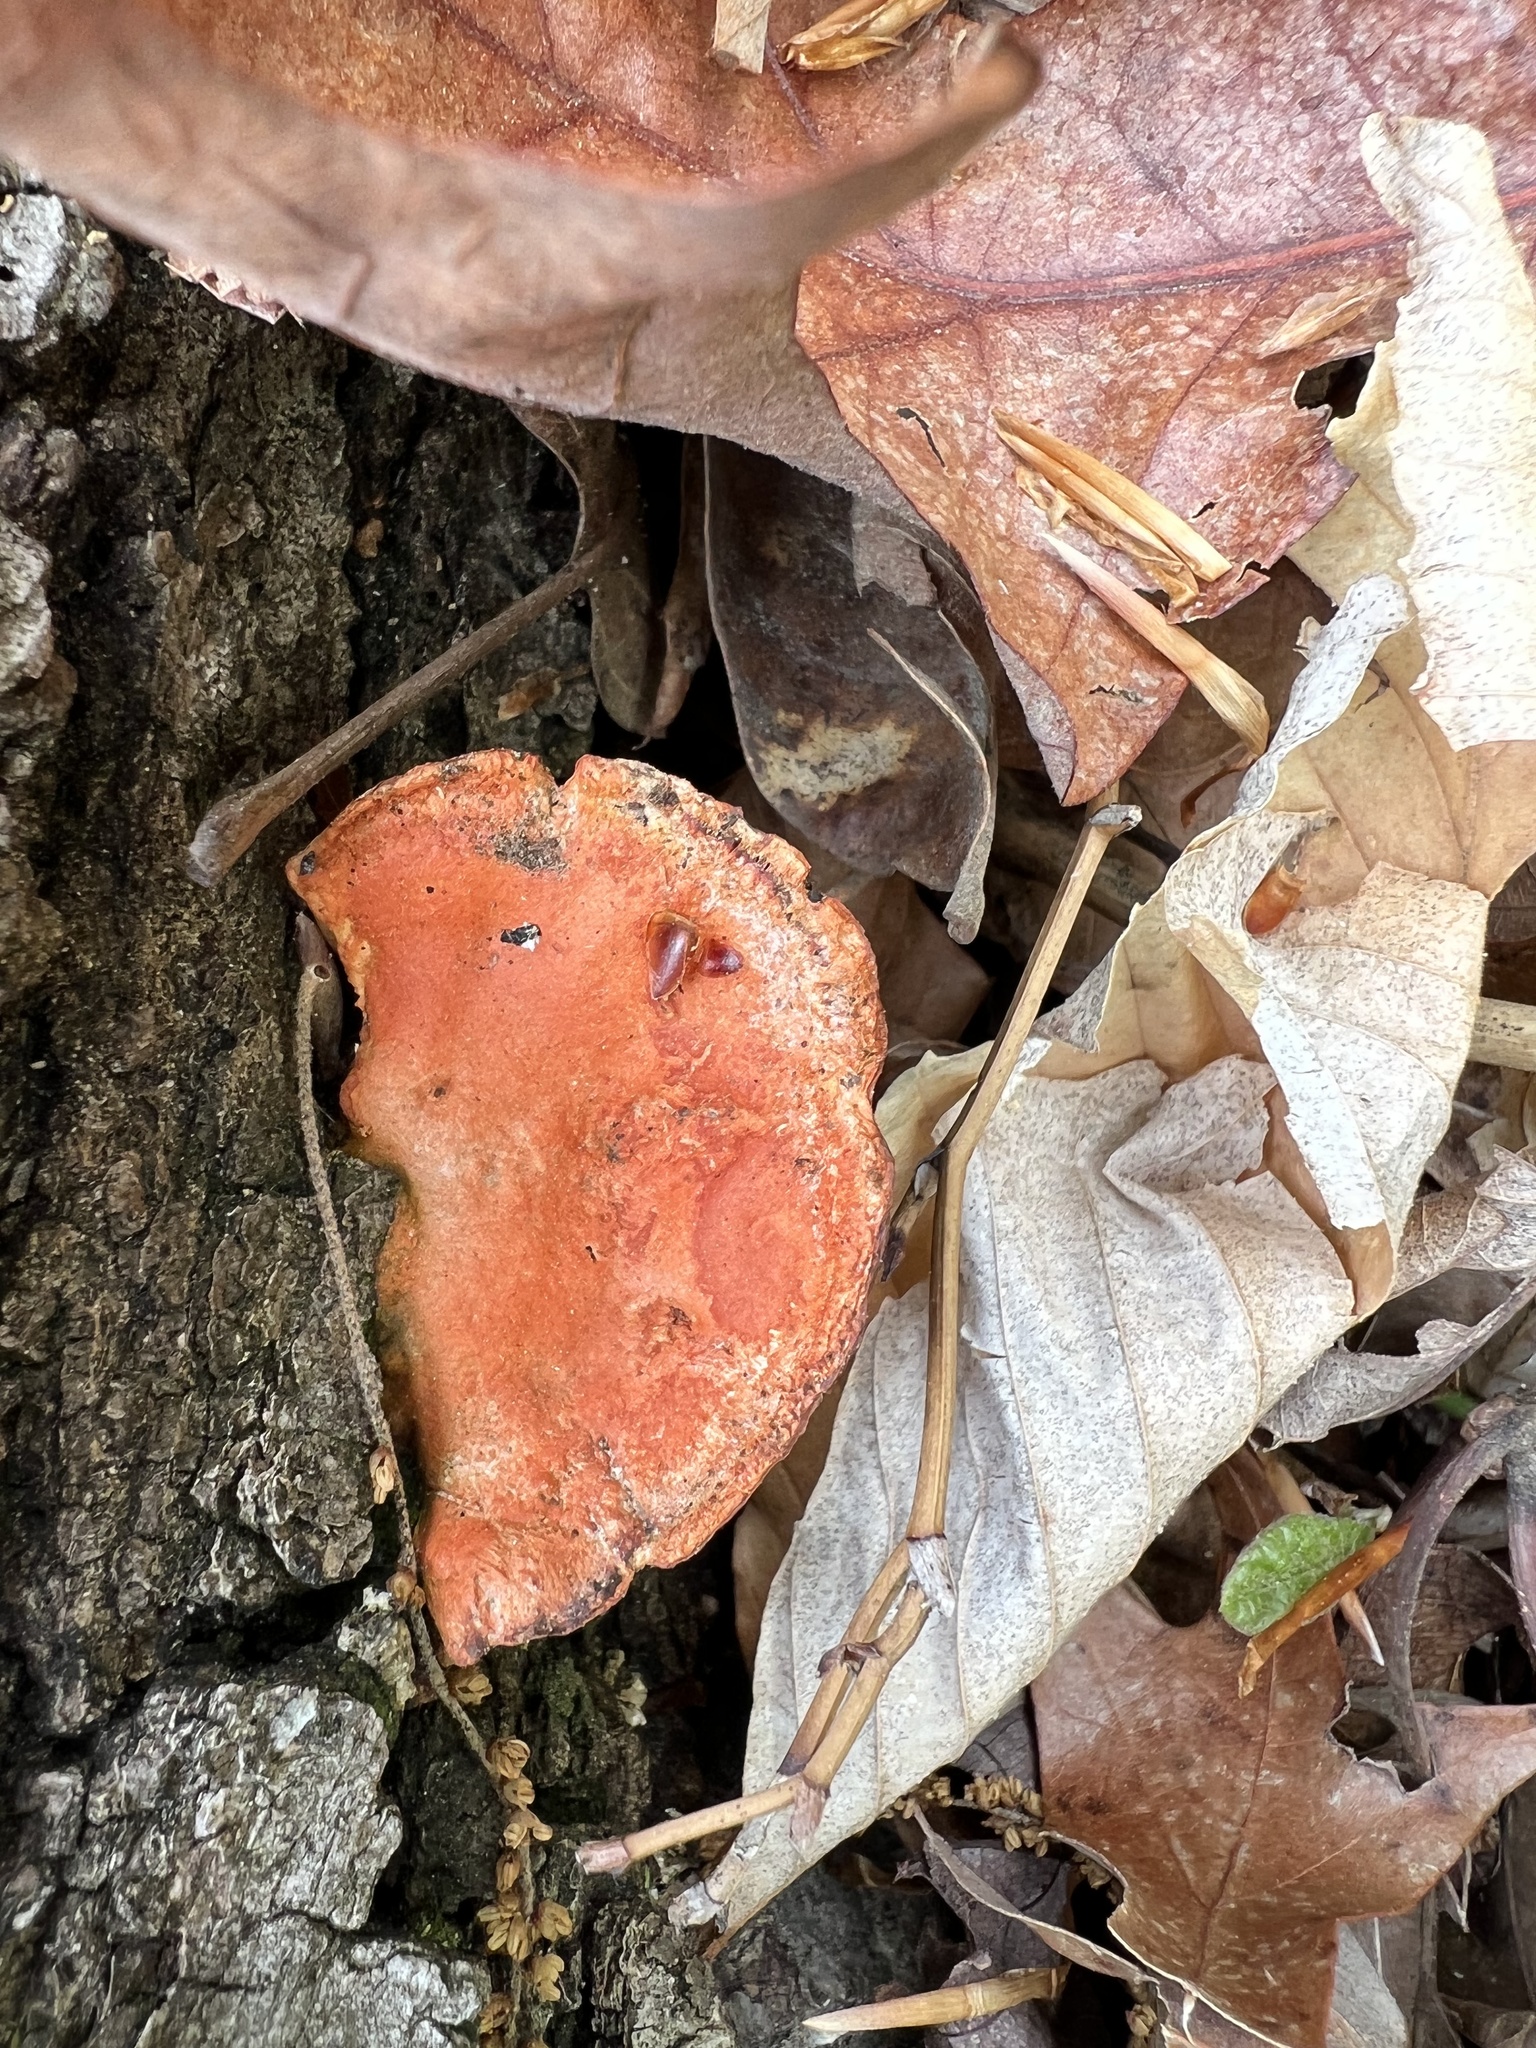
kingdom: Fungi
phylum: Basidiomycota
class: Agaricomycetes
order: Polyporales
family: Polyporaceae
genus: Trametes
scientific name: Trametes cinnabarina
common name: Northern cinnabar polypore
